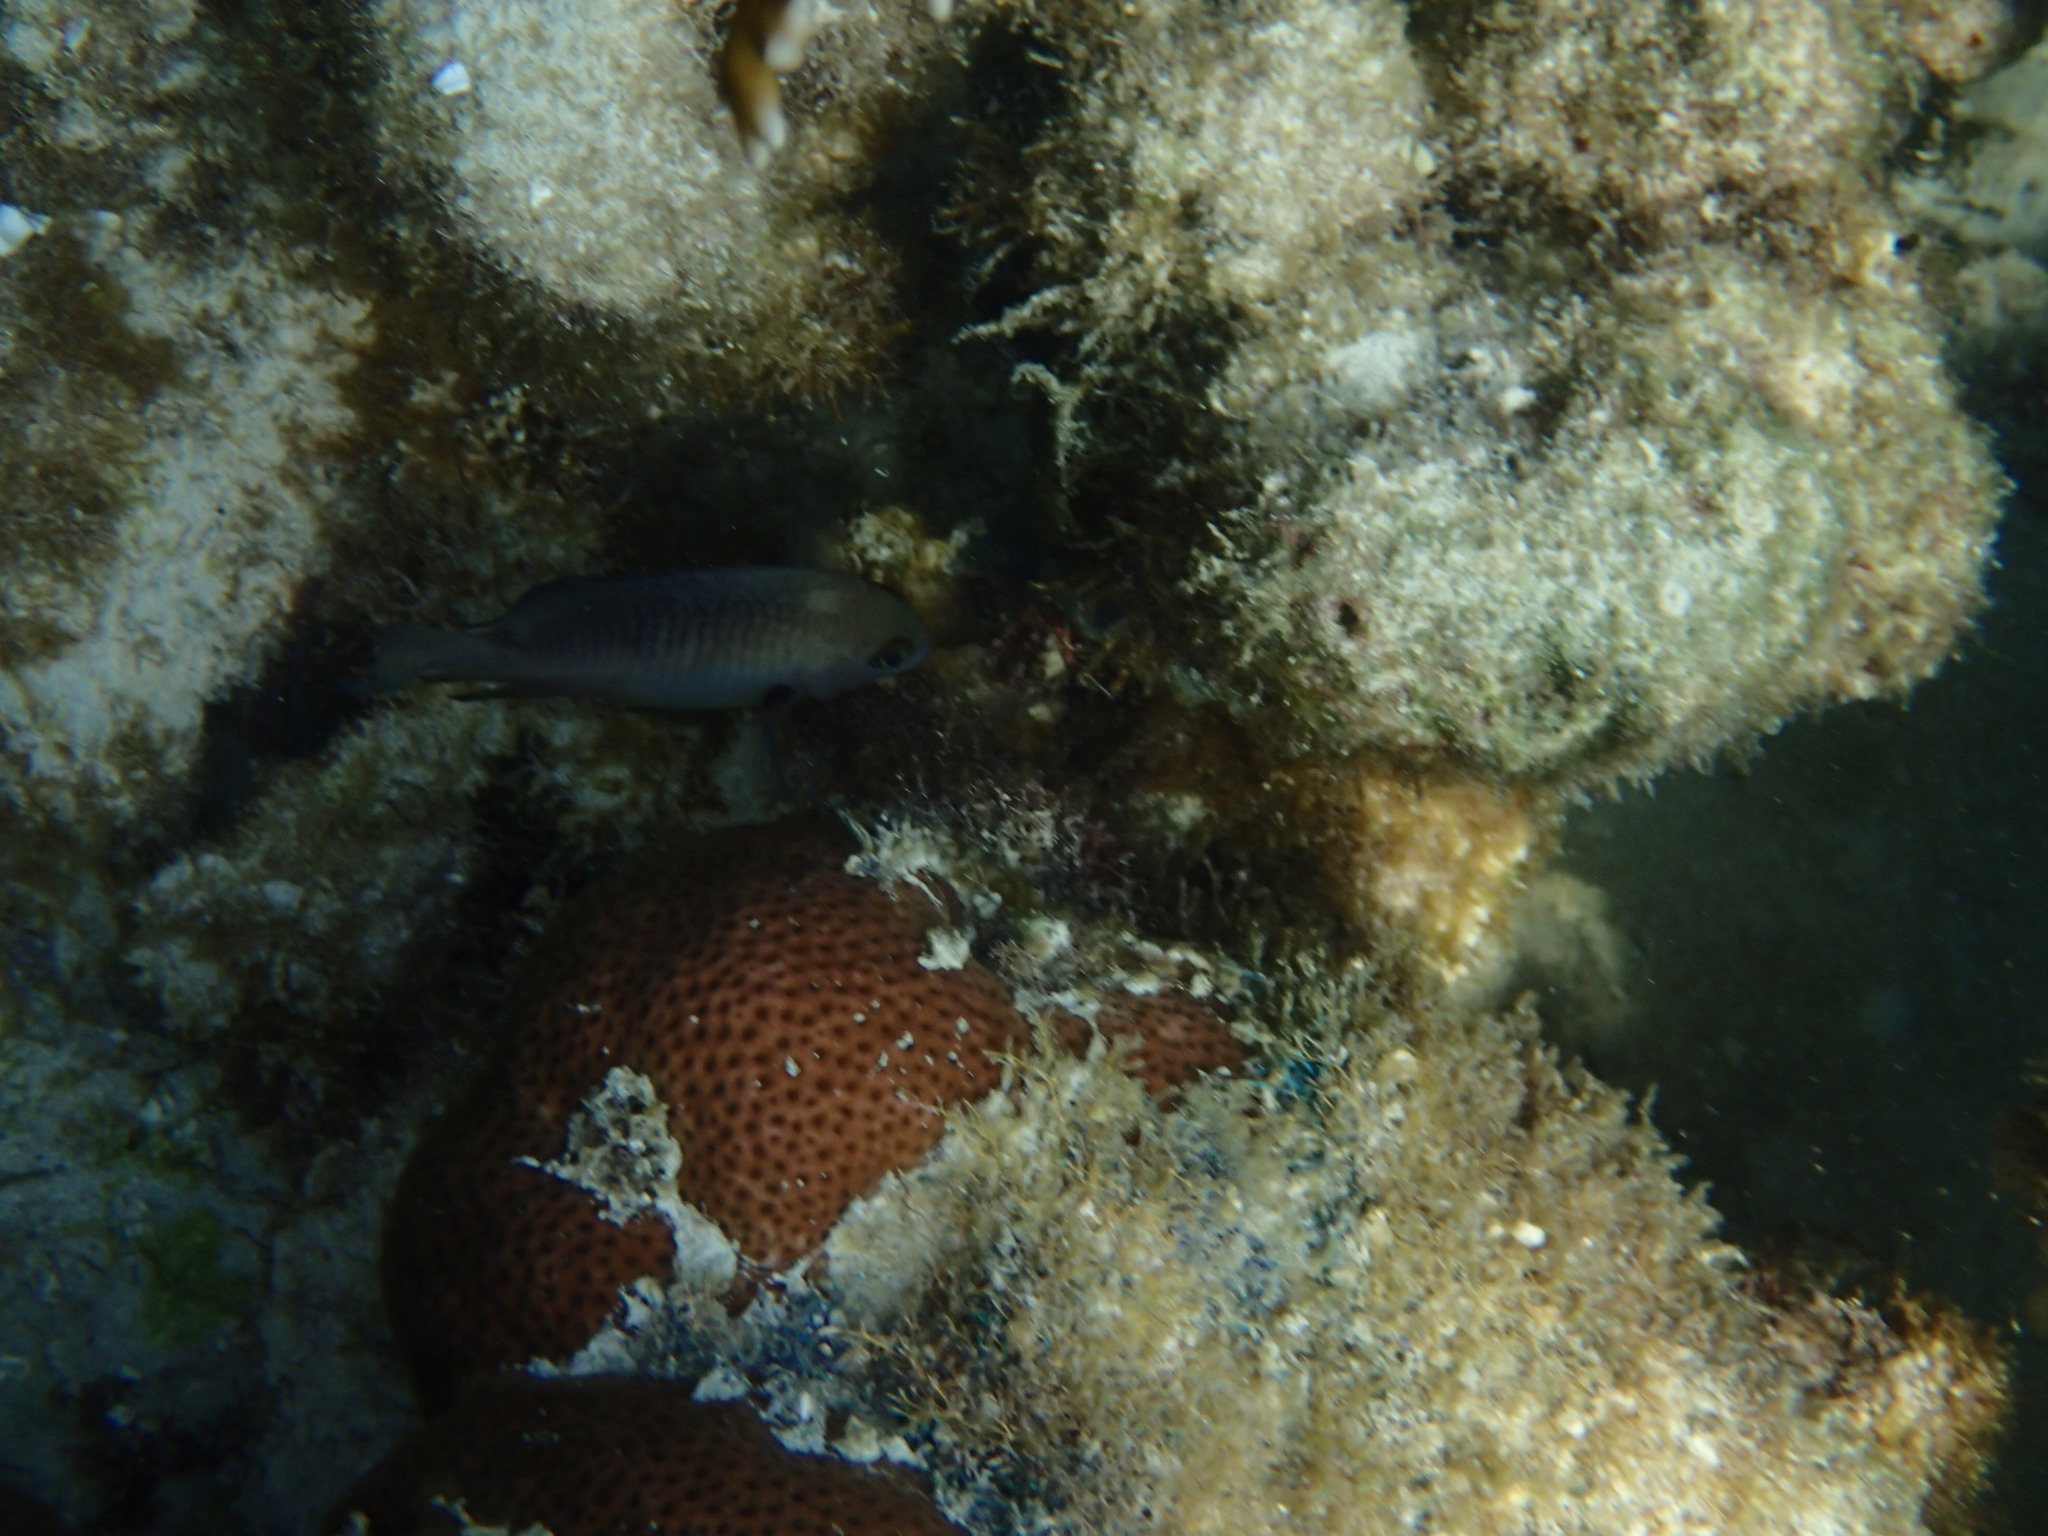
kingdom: Animalia
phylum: Chordata
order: Perciformes
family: Pomacentridae
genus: Stegastes
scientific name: Stegastes planifrons
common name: Threespot damselfish
